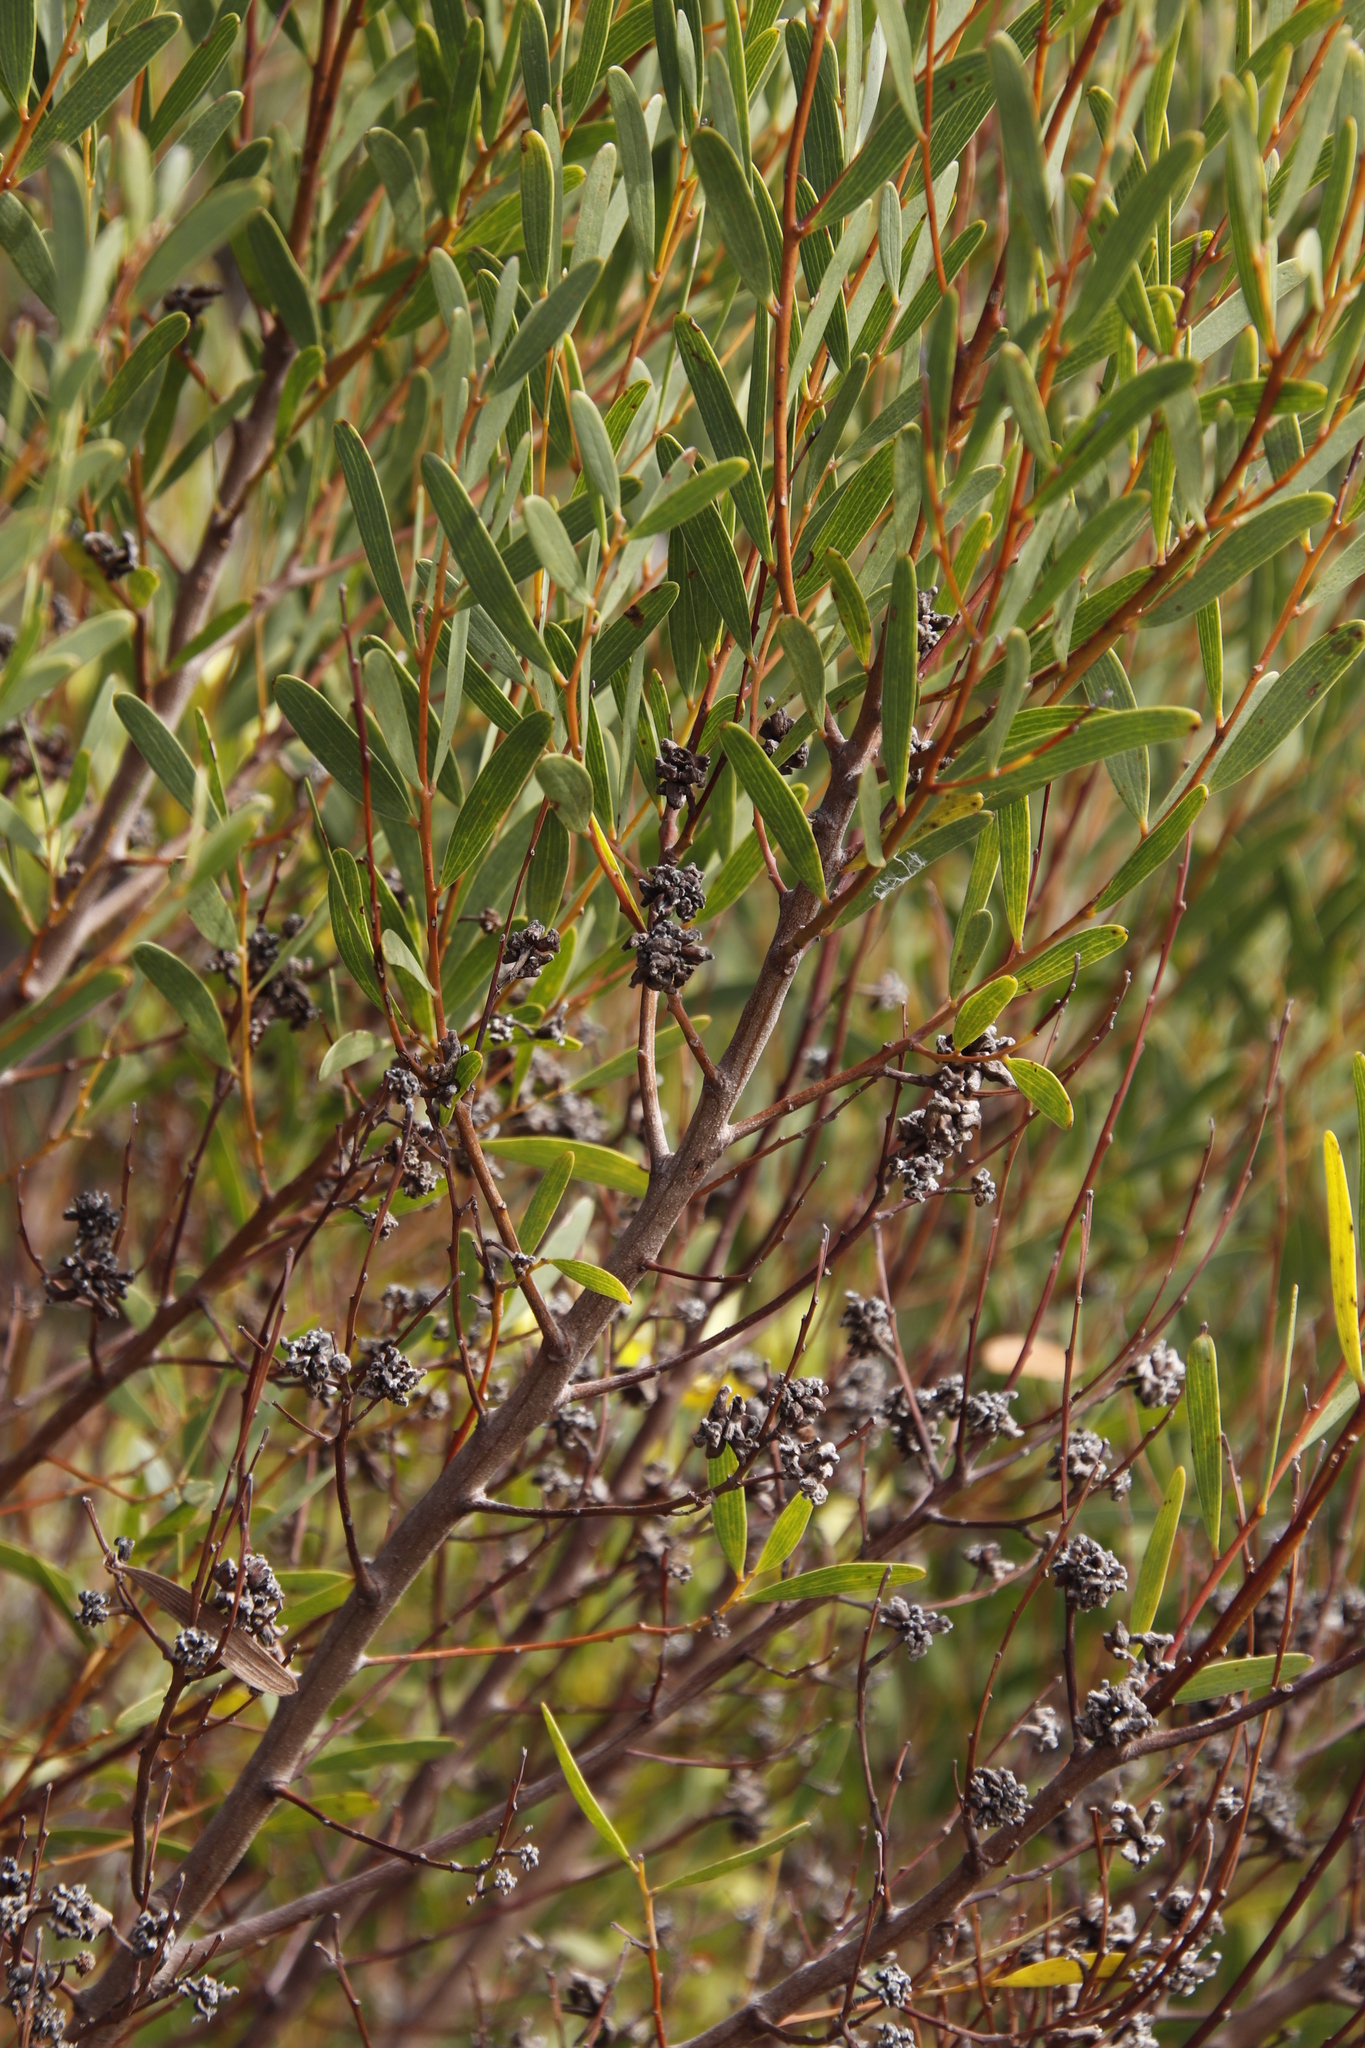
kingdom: Plantae
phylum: Tracheophyta
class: Magnoliopsida
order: Fabales
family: Fabaceae
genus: Acacia
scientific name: Acacia cyclops
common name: Coastal wattle
